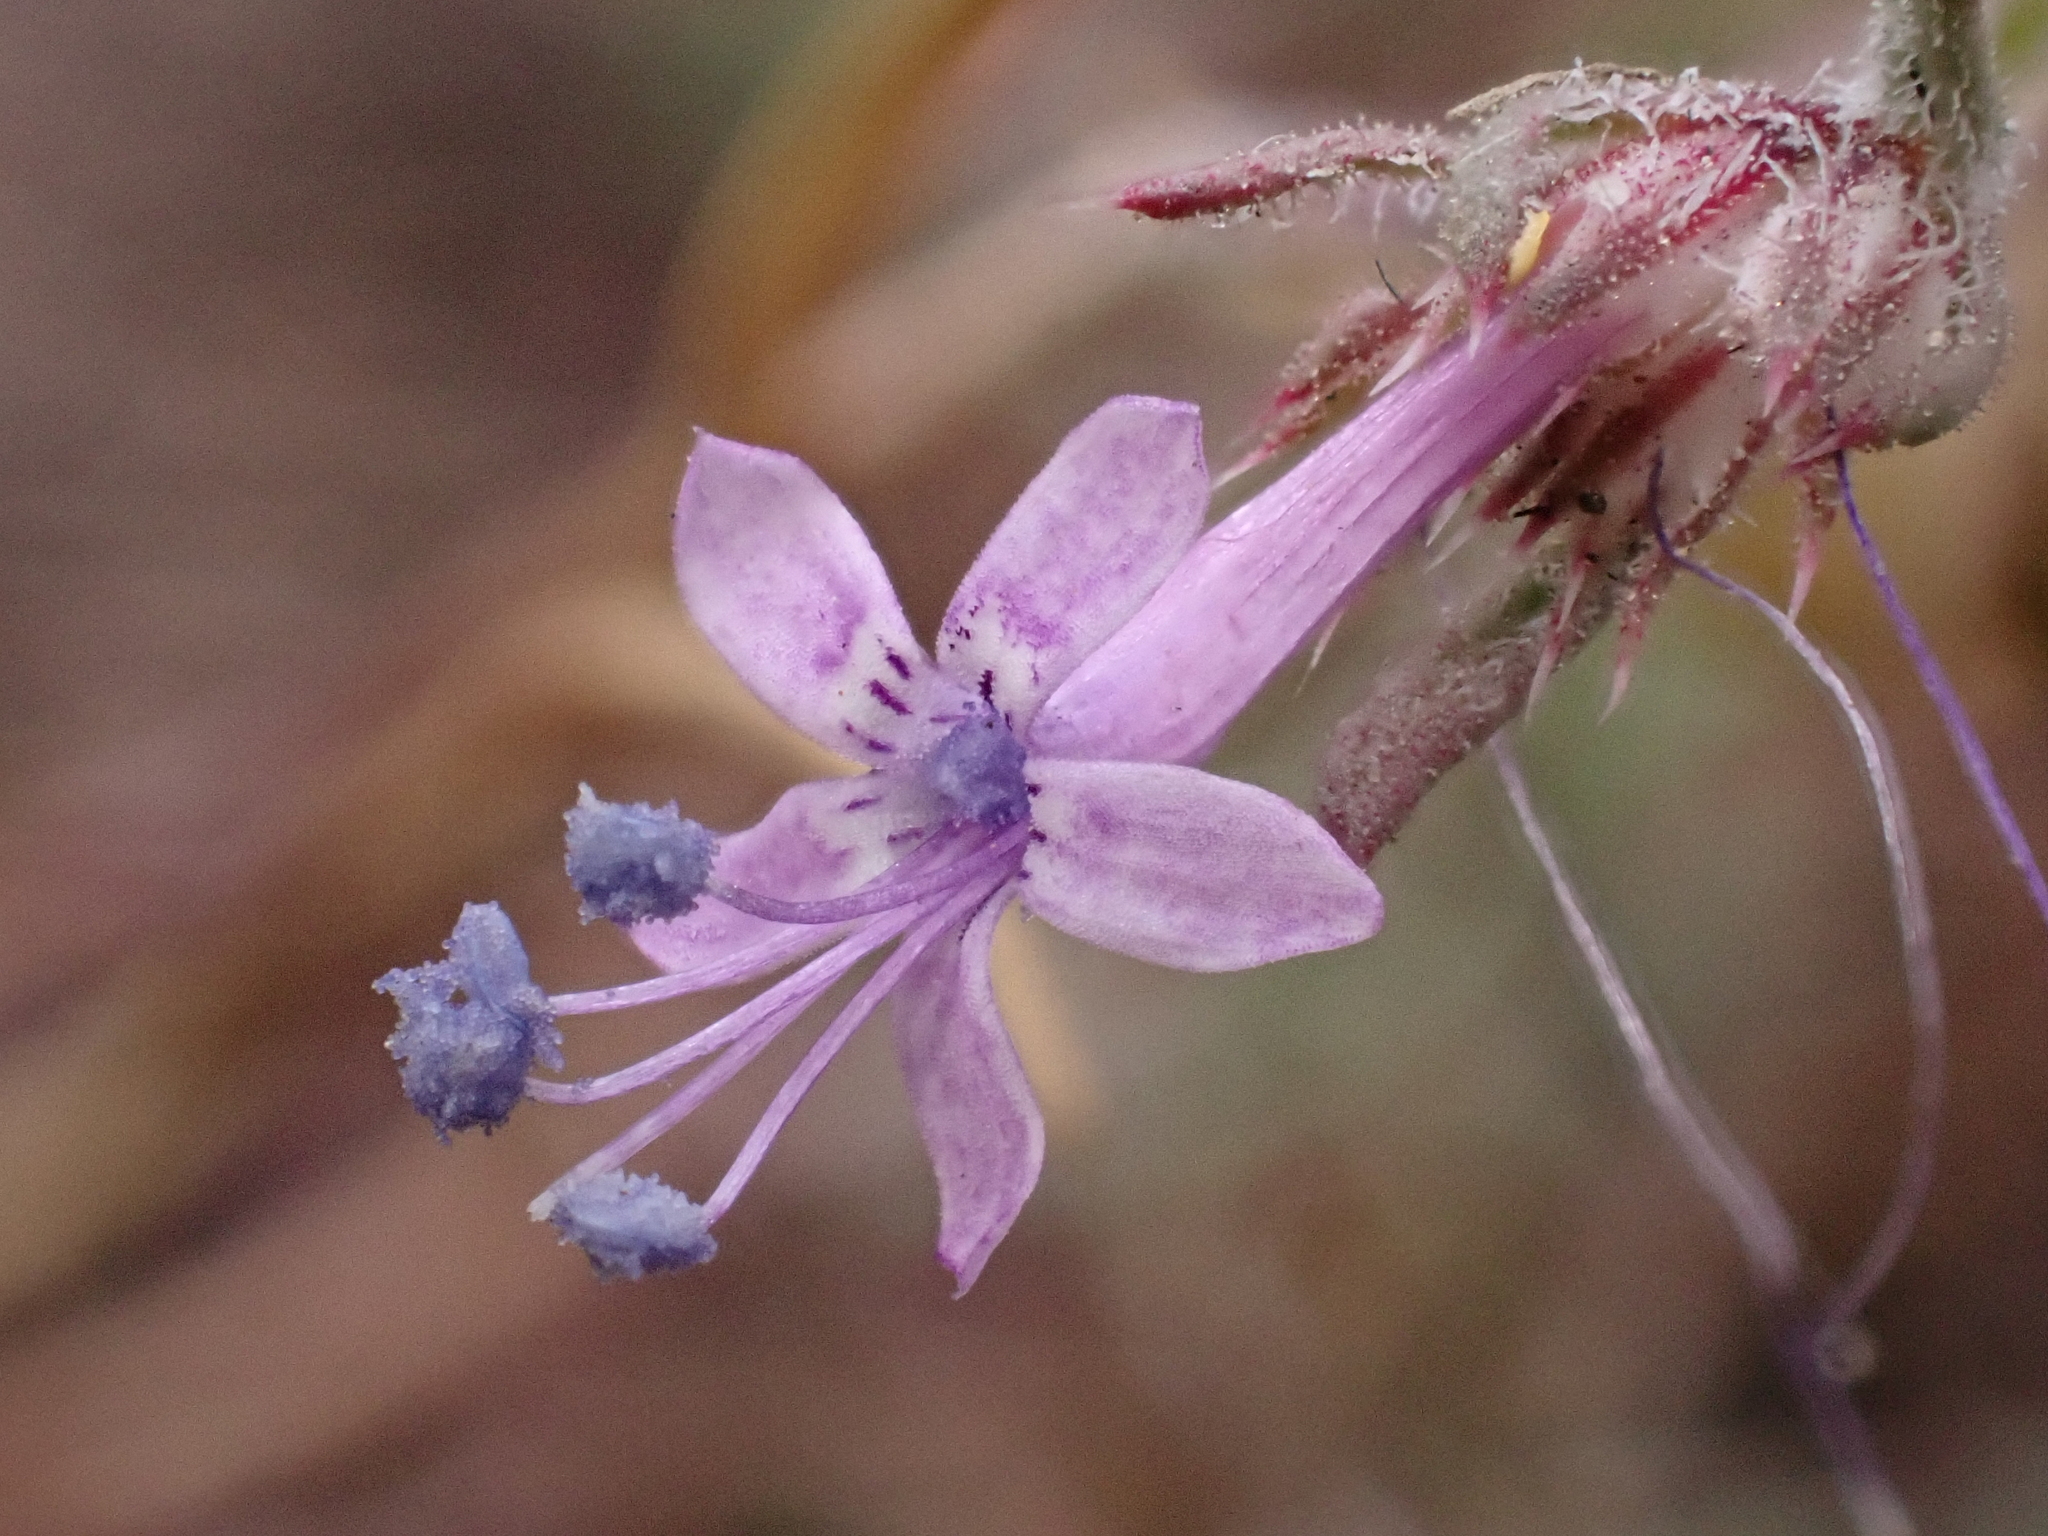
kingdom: Plantae
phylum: Tracheophyta
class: Magnoliopsida
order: Ericales
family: Polemoniaceae
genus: Ipomopsis
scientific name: Ipomopsis multiflora
